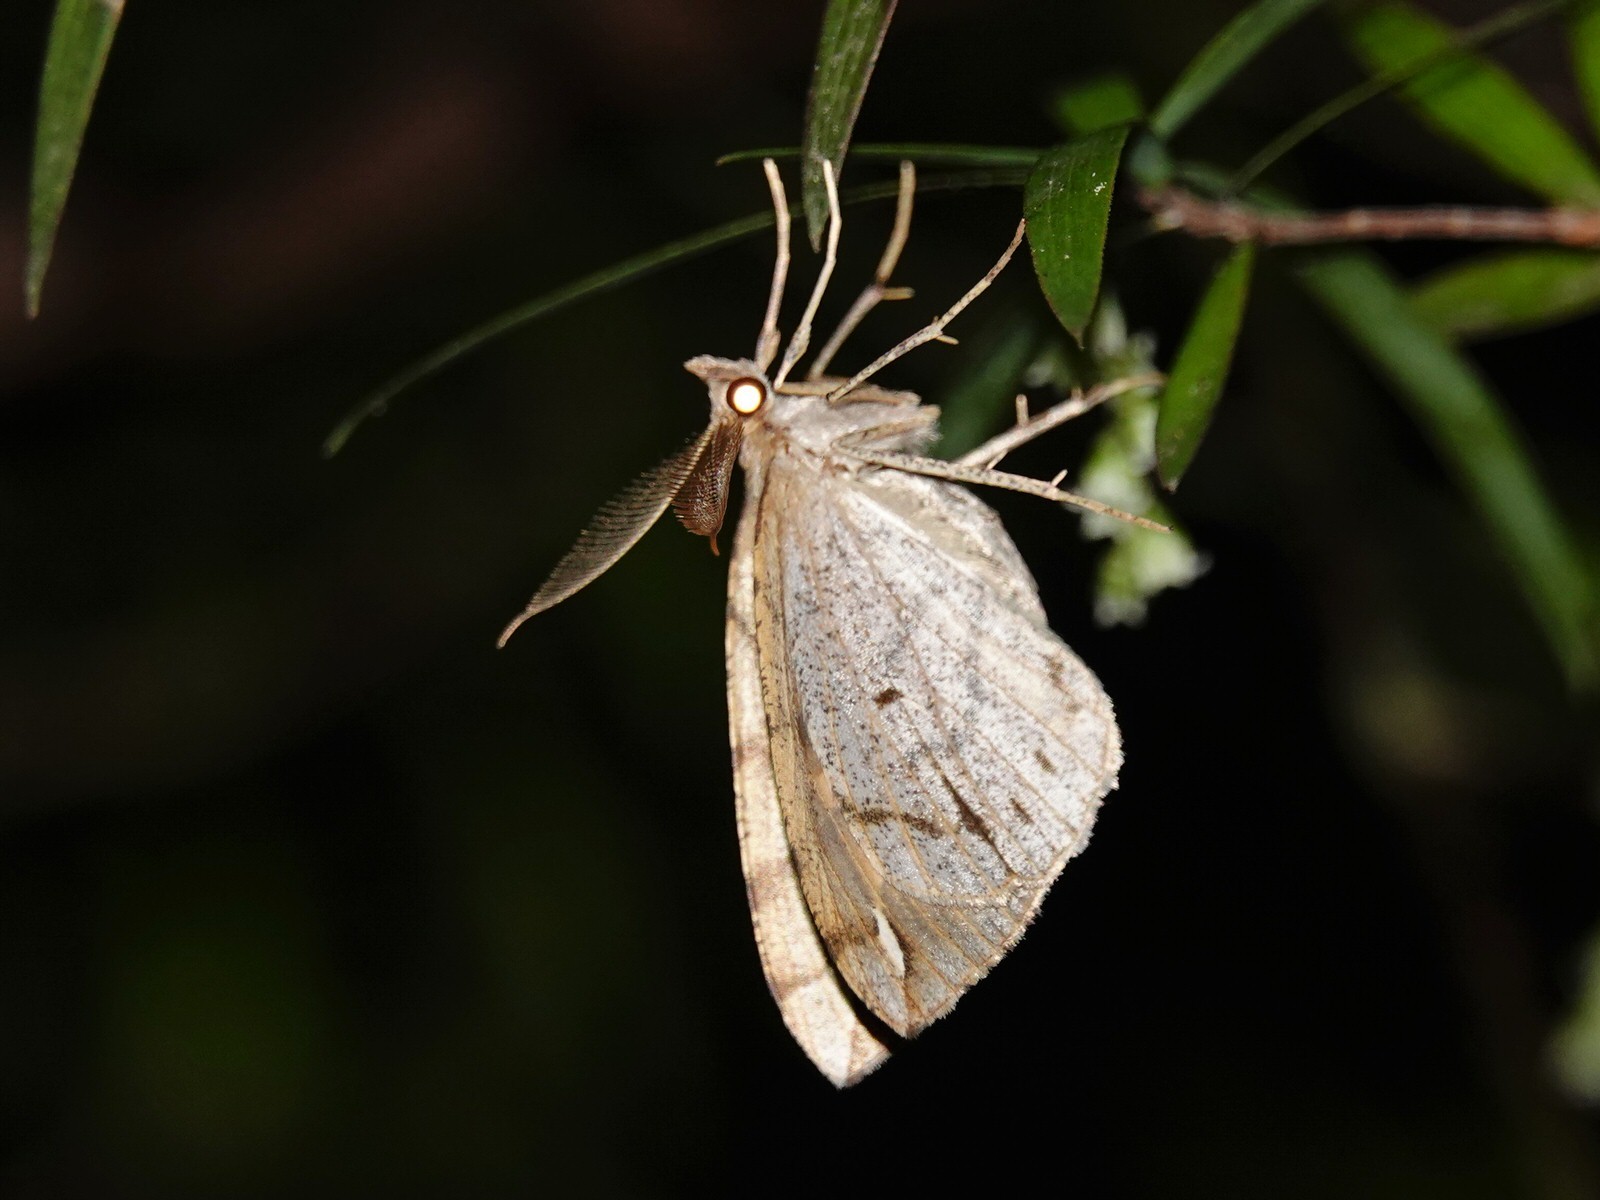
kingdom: Animalia
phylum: Arthropoda
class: Insecta
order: Lepidoptera
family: Geometridae
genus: Chalastra
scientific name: Chalastra aristarcha
